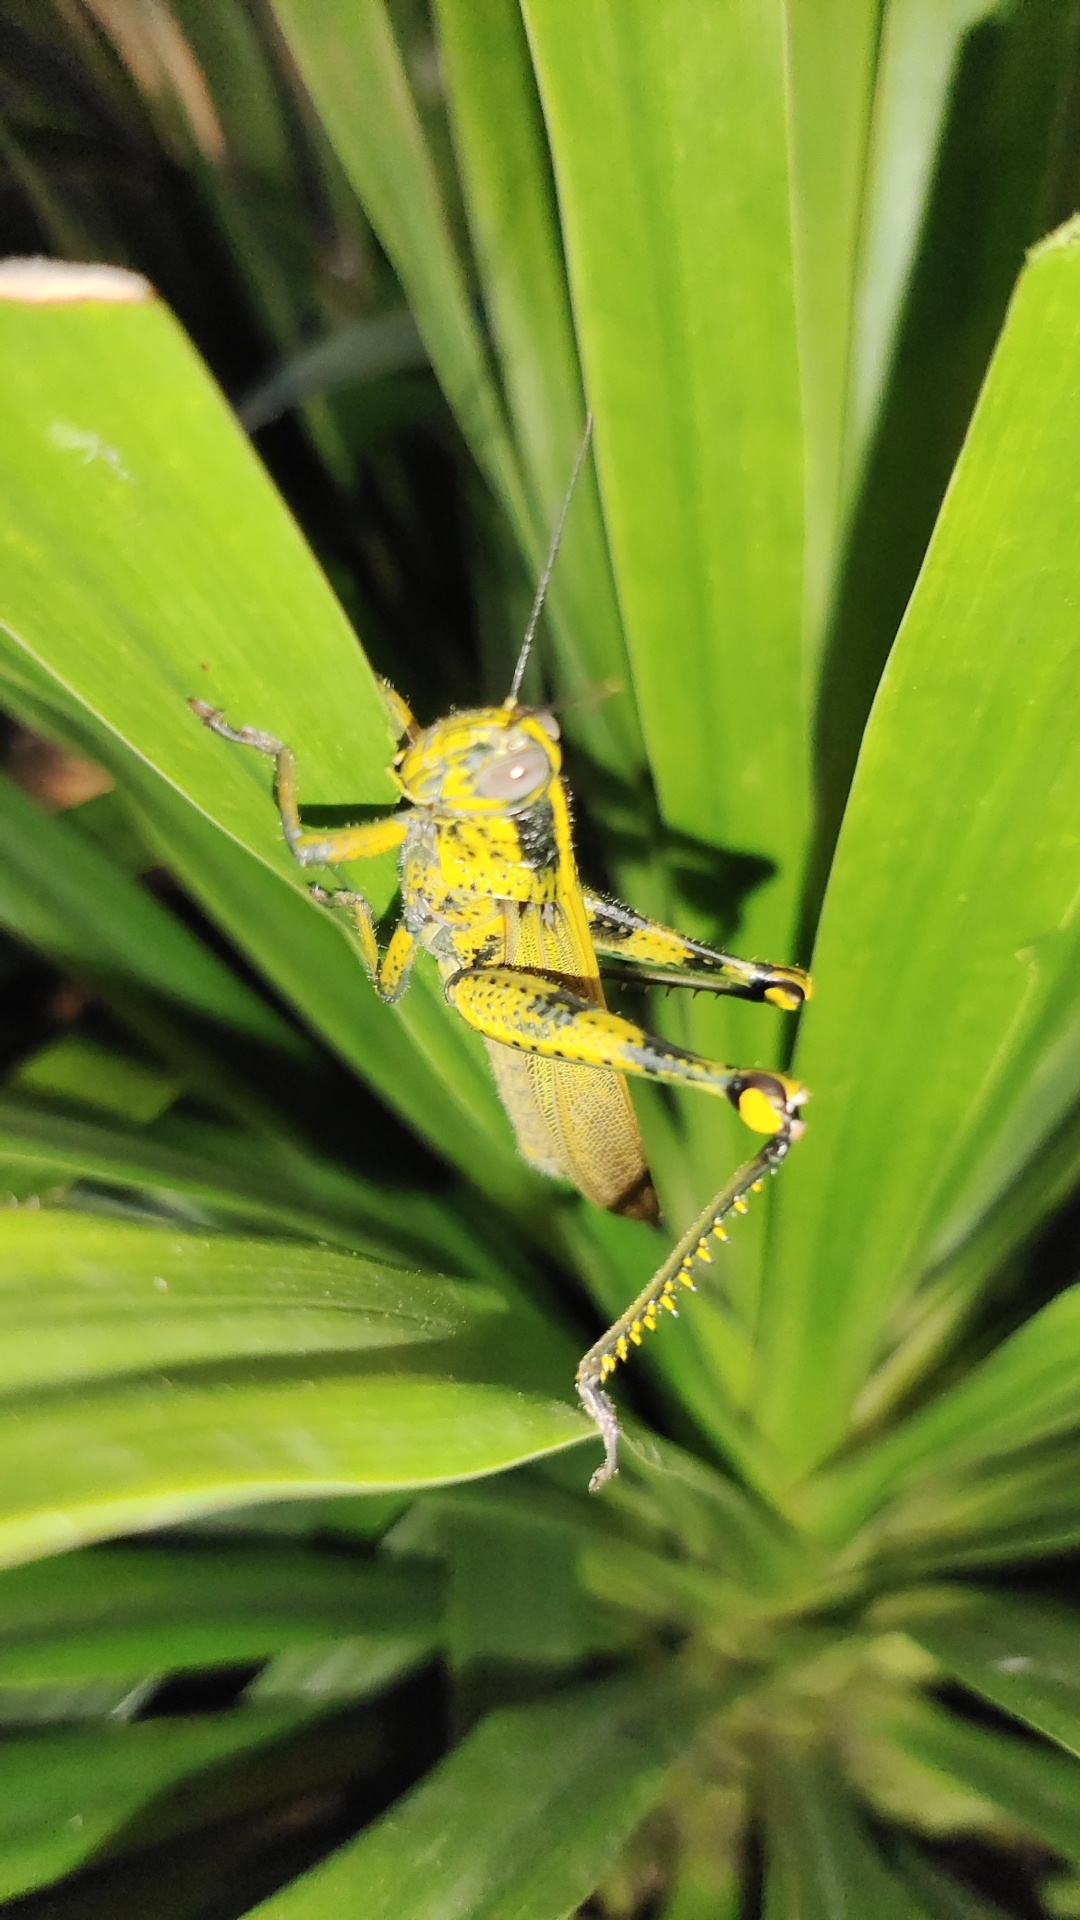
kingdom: Animalia
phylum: Arthropoda
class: Insecta
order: Orthoptera
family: Acrididae
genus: Valanga
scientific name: Valanga nigricornis
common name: Javanese bird grasshopper
